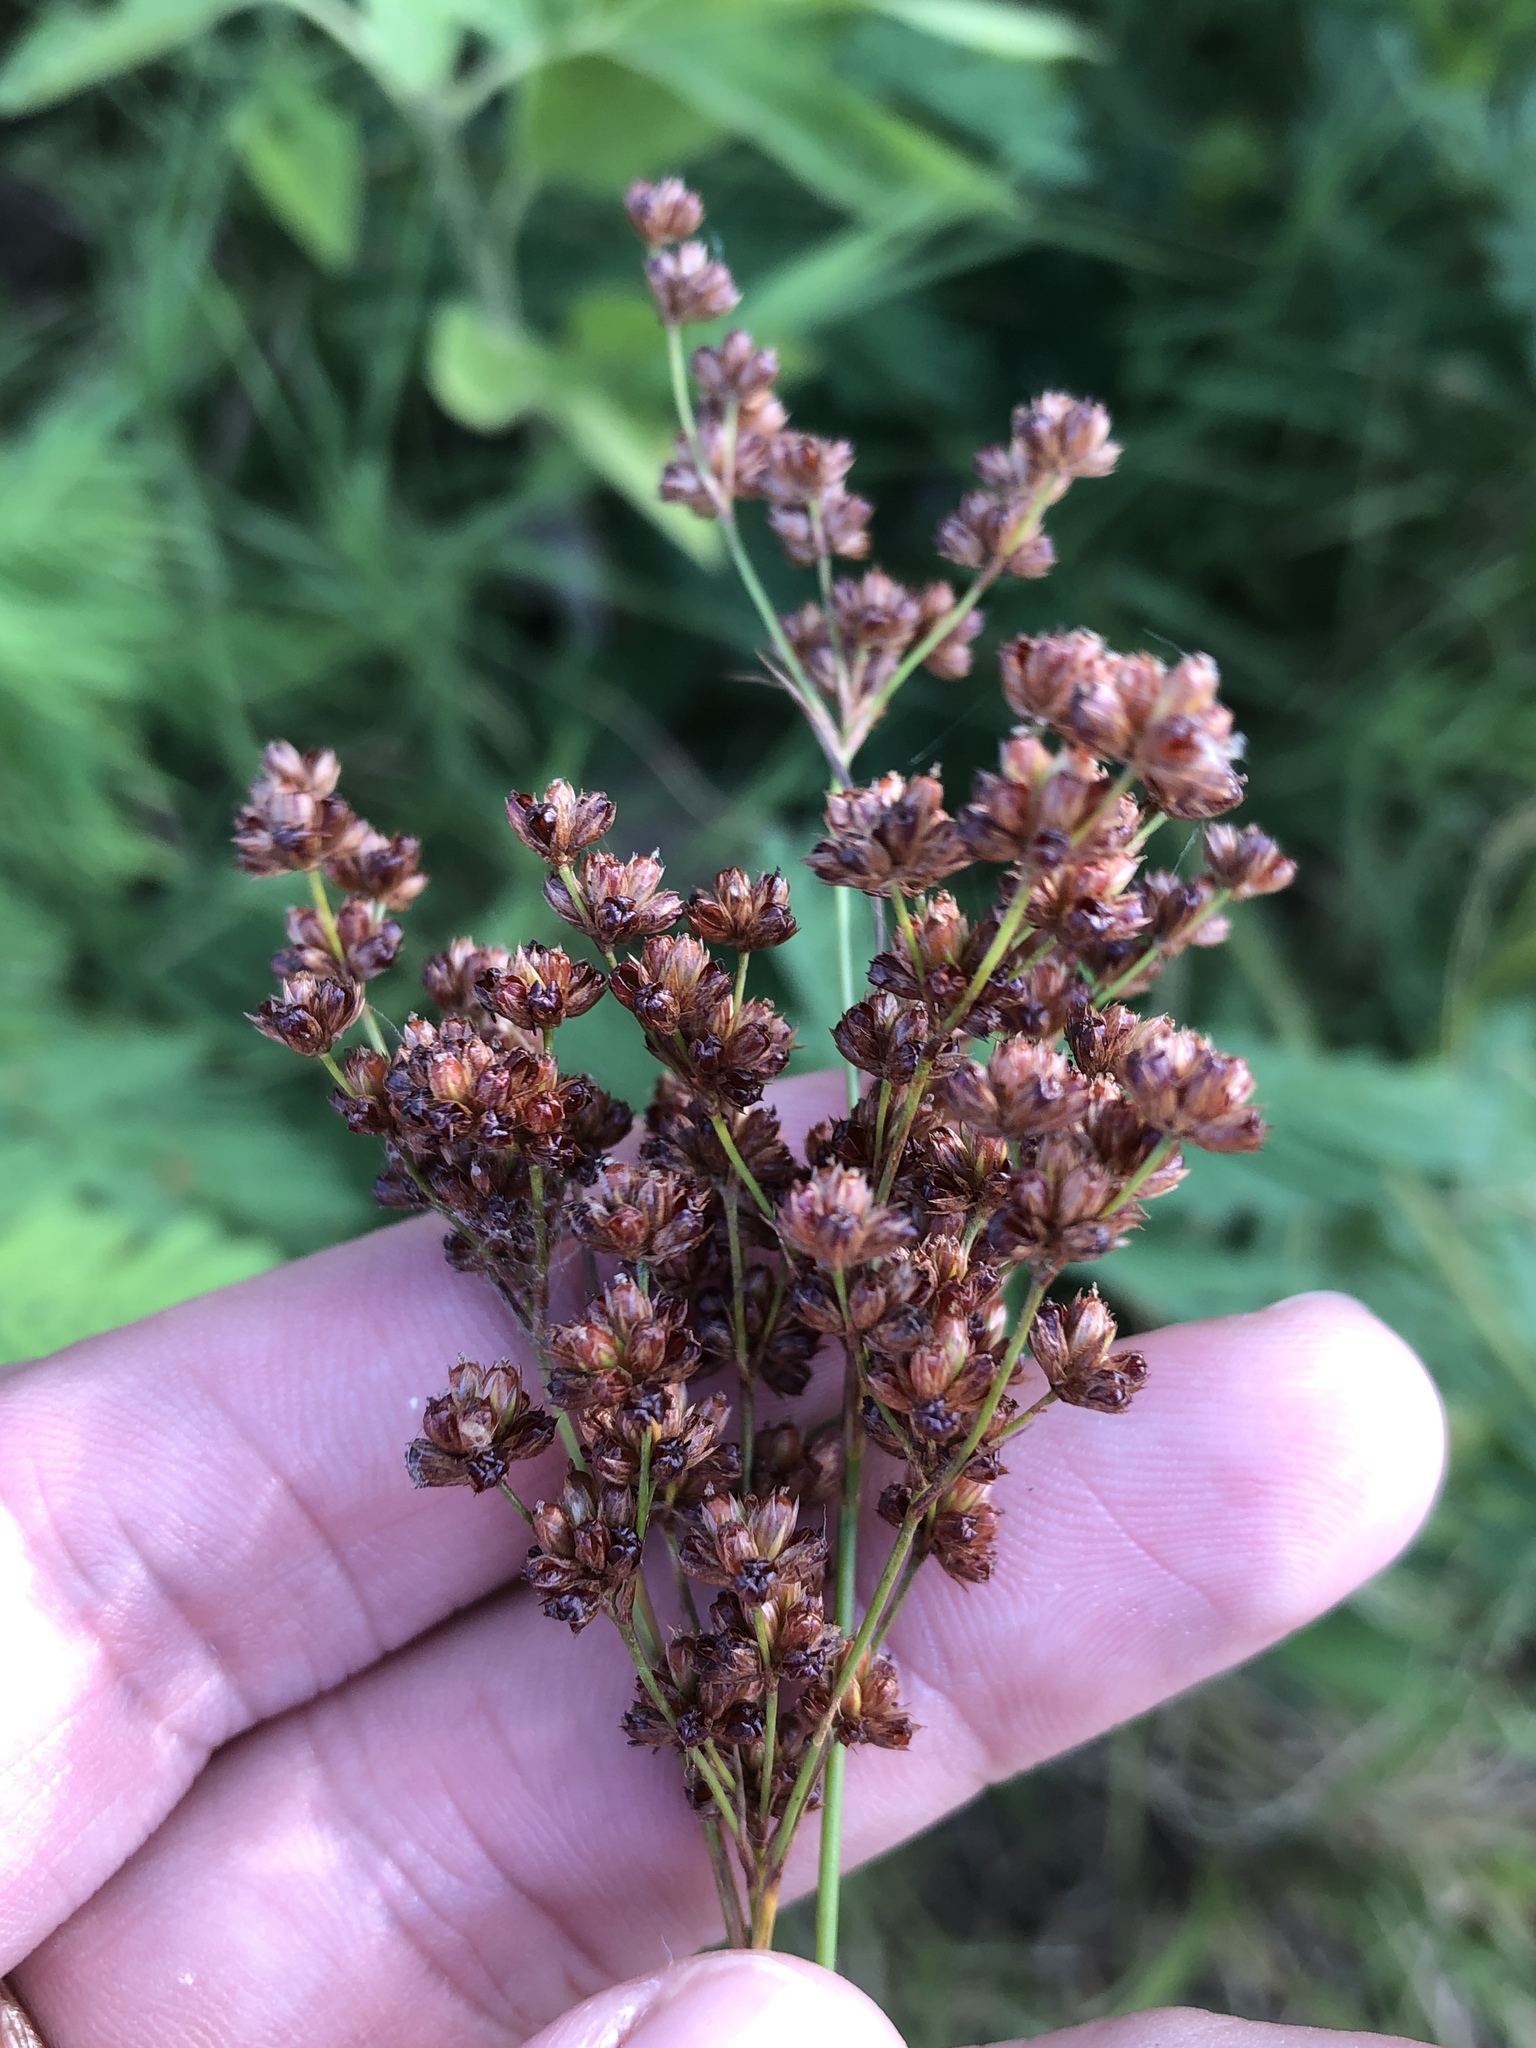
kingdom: Plantae
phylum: Tracheophyta
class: Liliopsida
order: Poales
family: Juncaceae
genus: Juncus
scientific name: Juncus marginatus
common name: Grass-leaf rush
